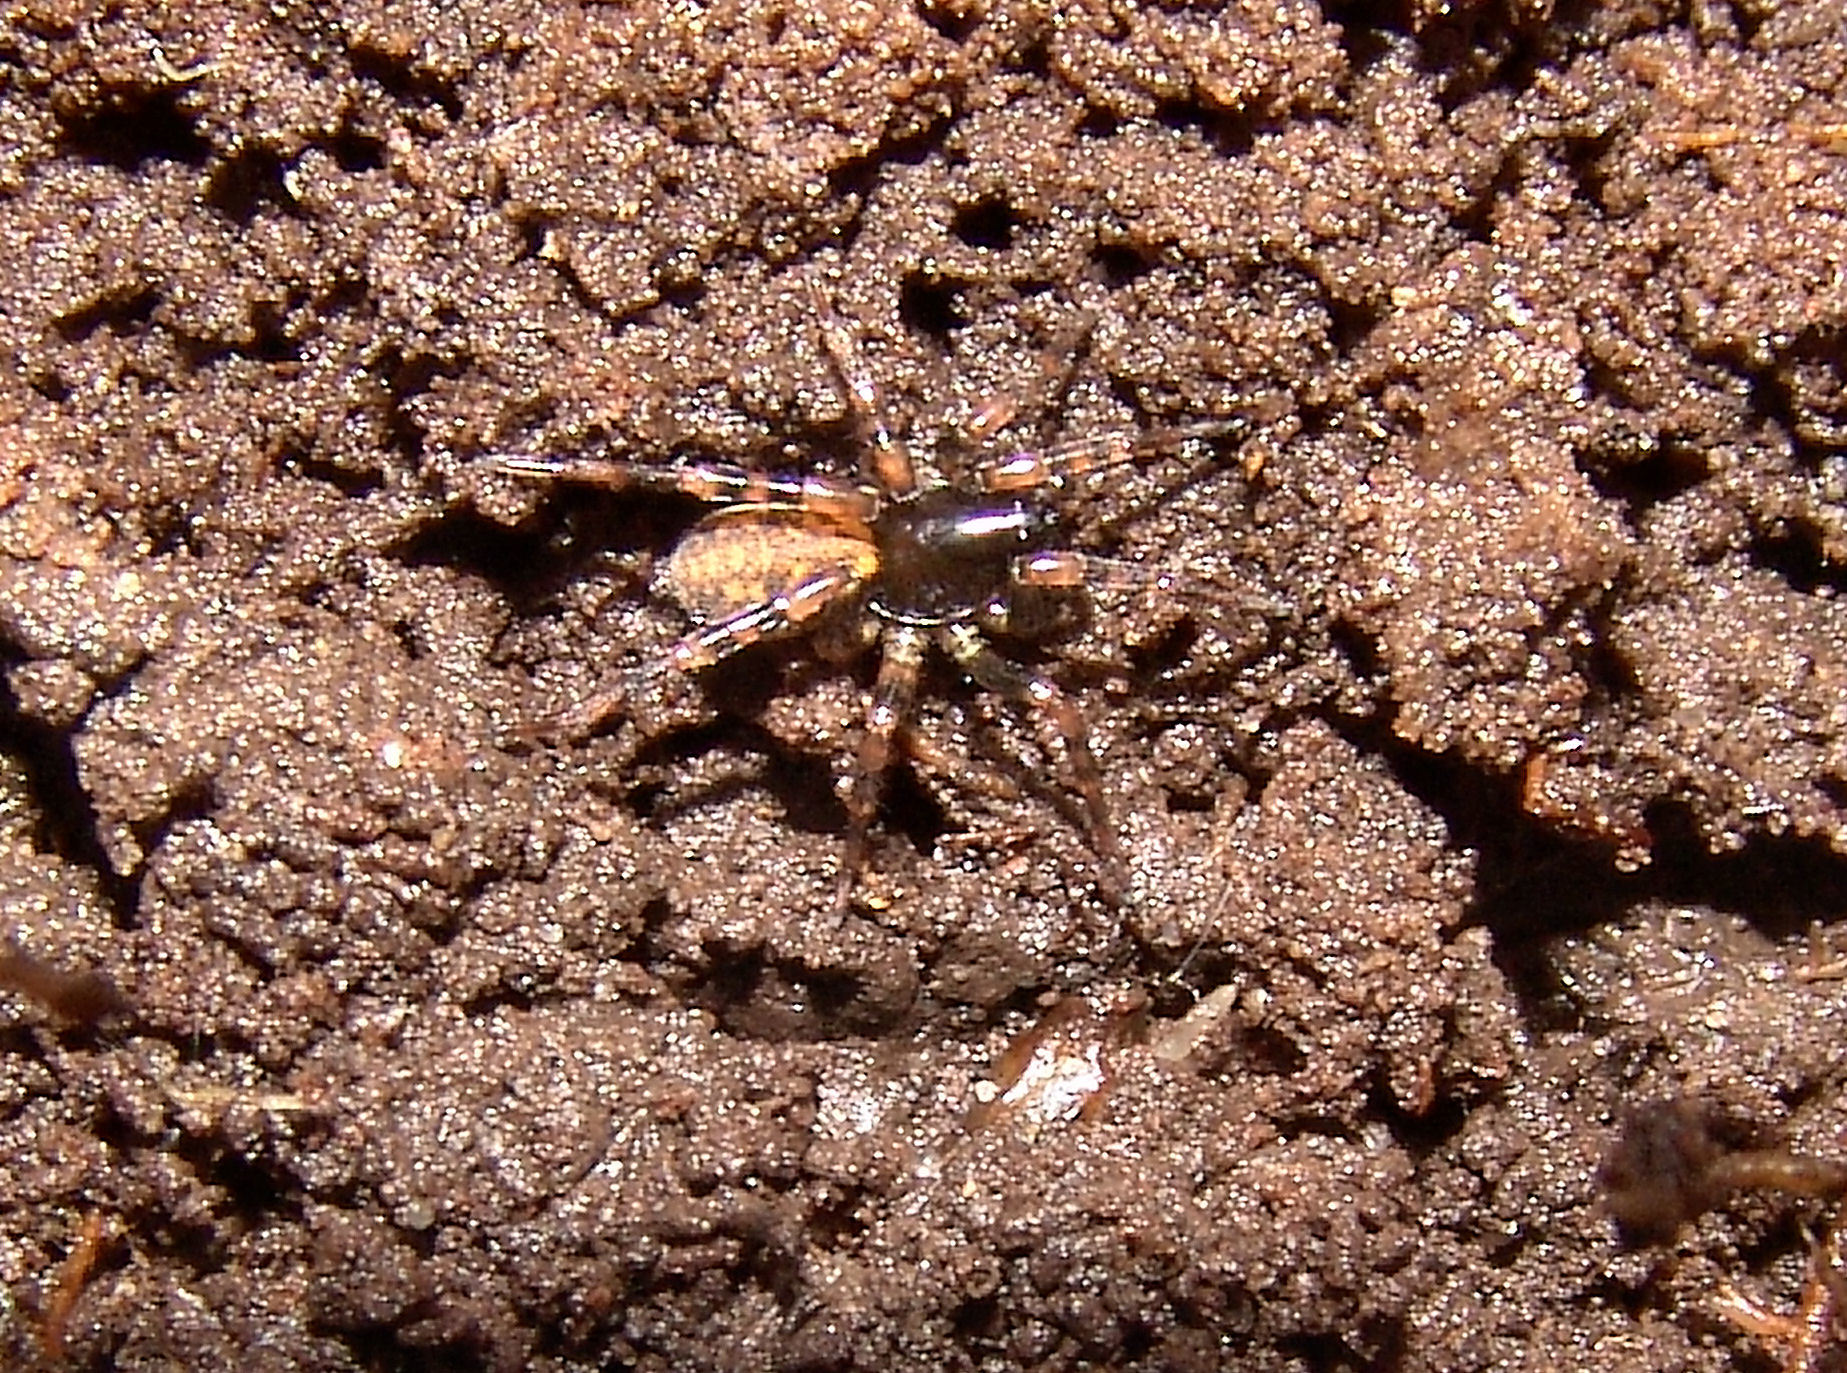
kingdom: Animalia
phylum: Arthropoda
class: Arachnida
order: Araneae
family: Lycosidae
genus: Allocosa
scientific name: Allocosa sublata
